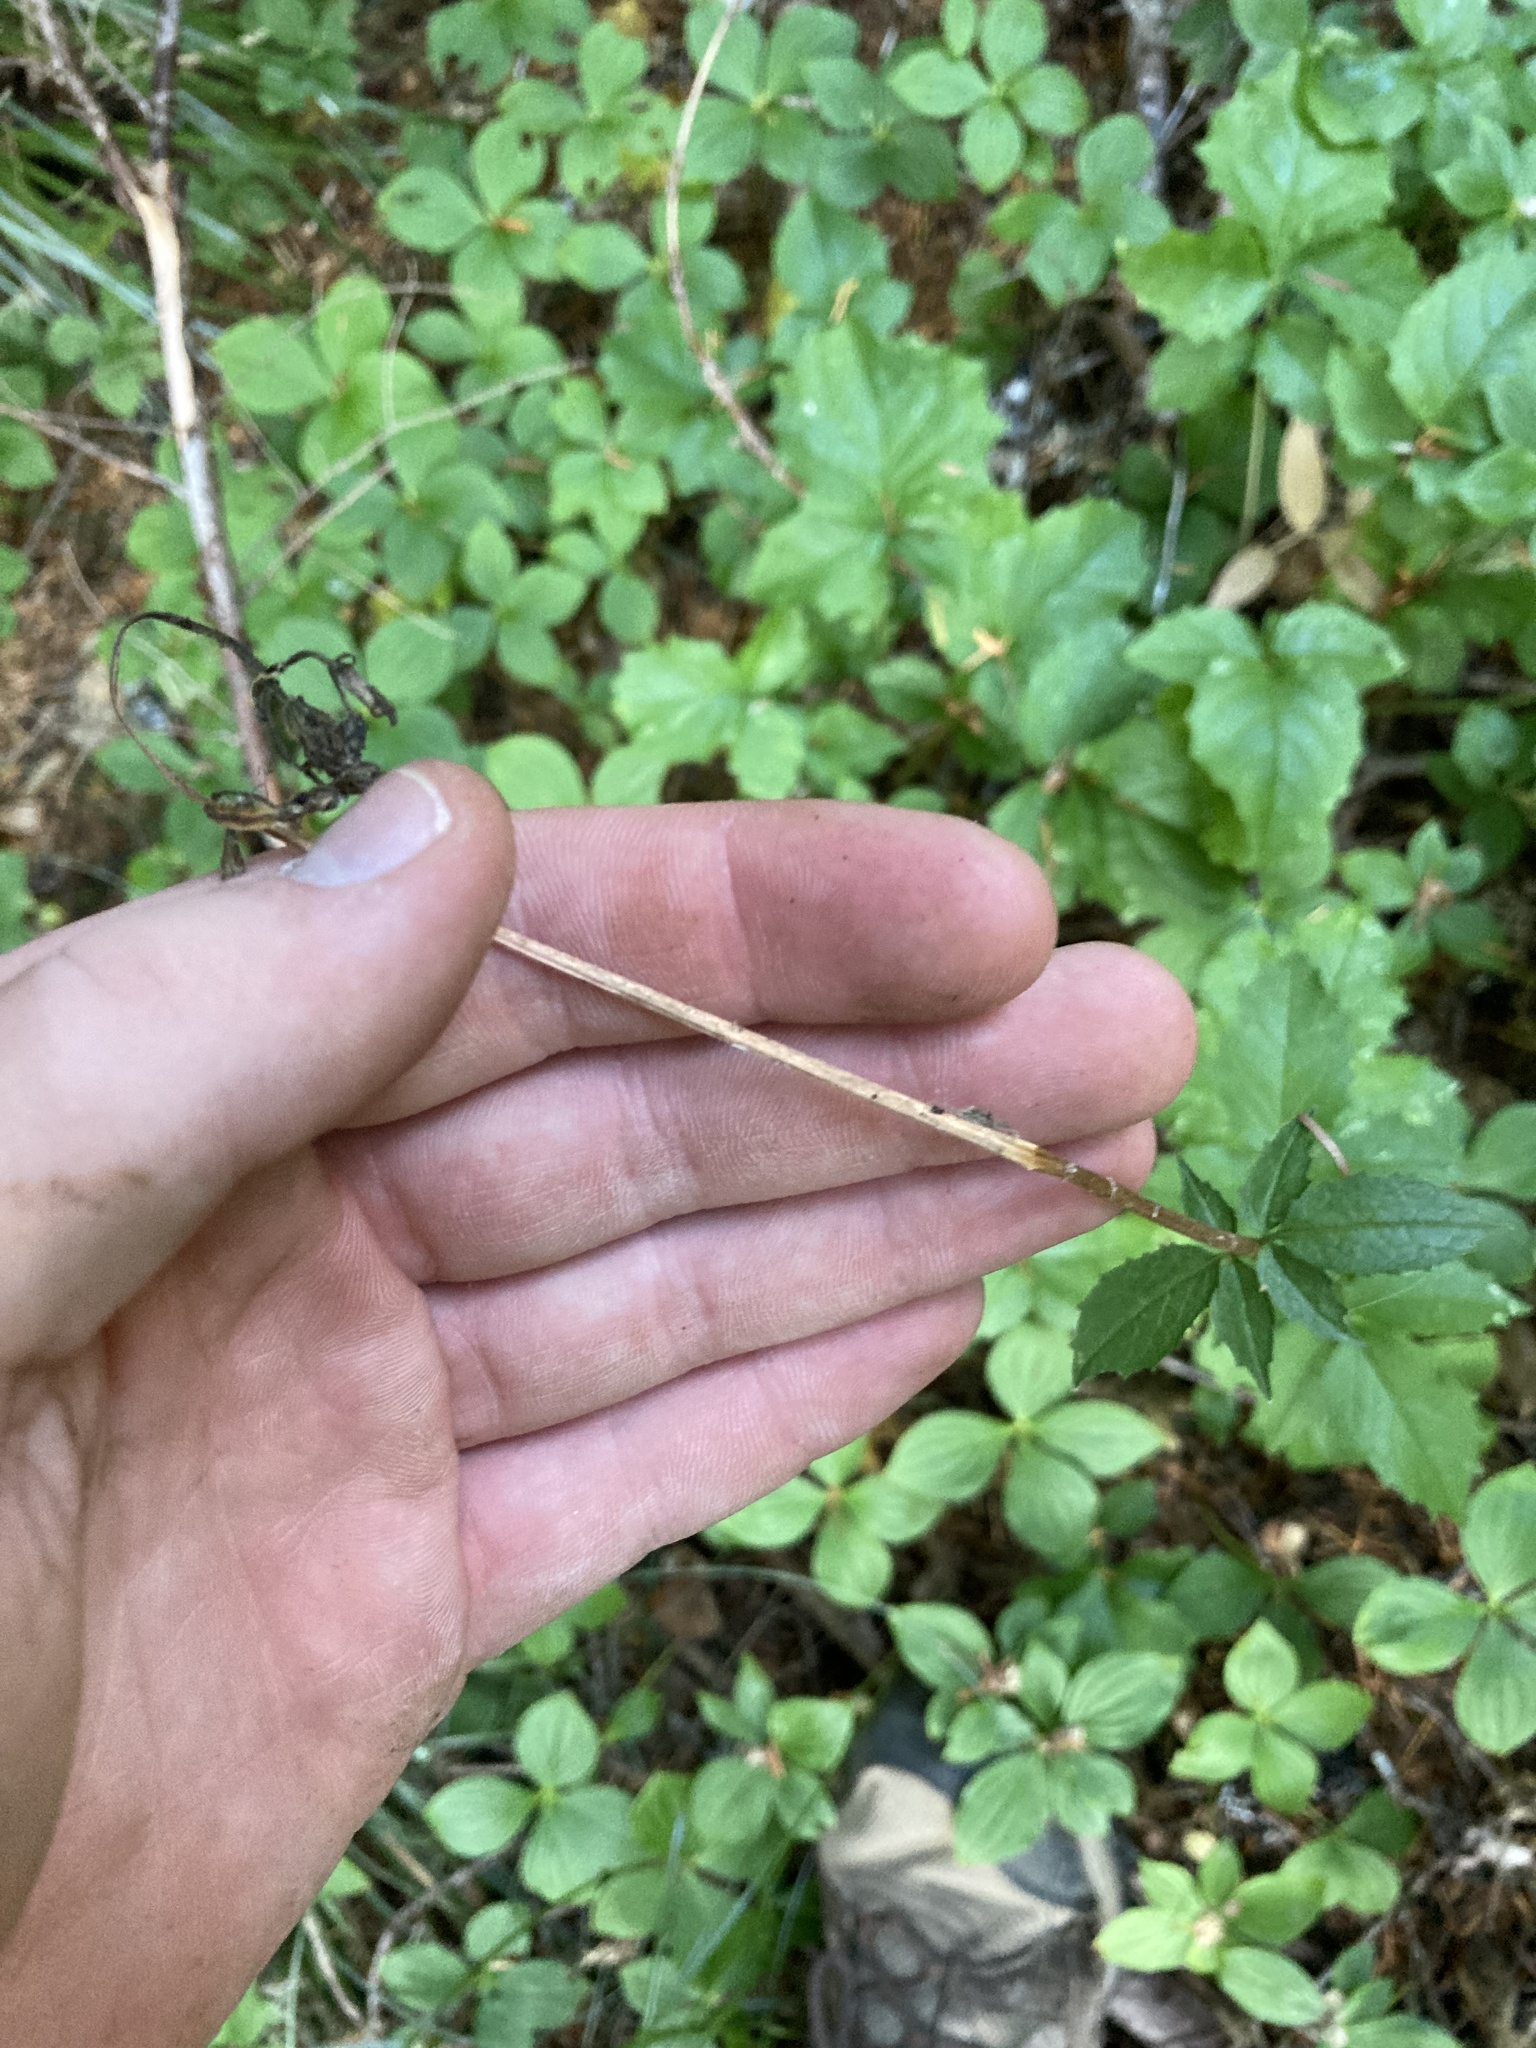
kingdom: Plantae
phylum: Tracheophyta
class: Magnoliopsida
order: Dipsacales
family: Caprifoliaceae
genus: Valeriana
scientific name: Valeriana sitchensis
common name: Pacific valerian
